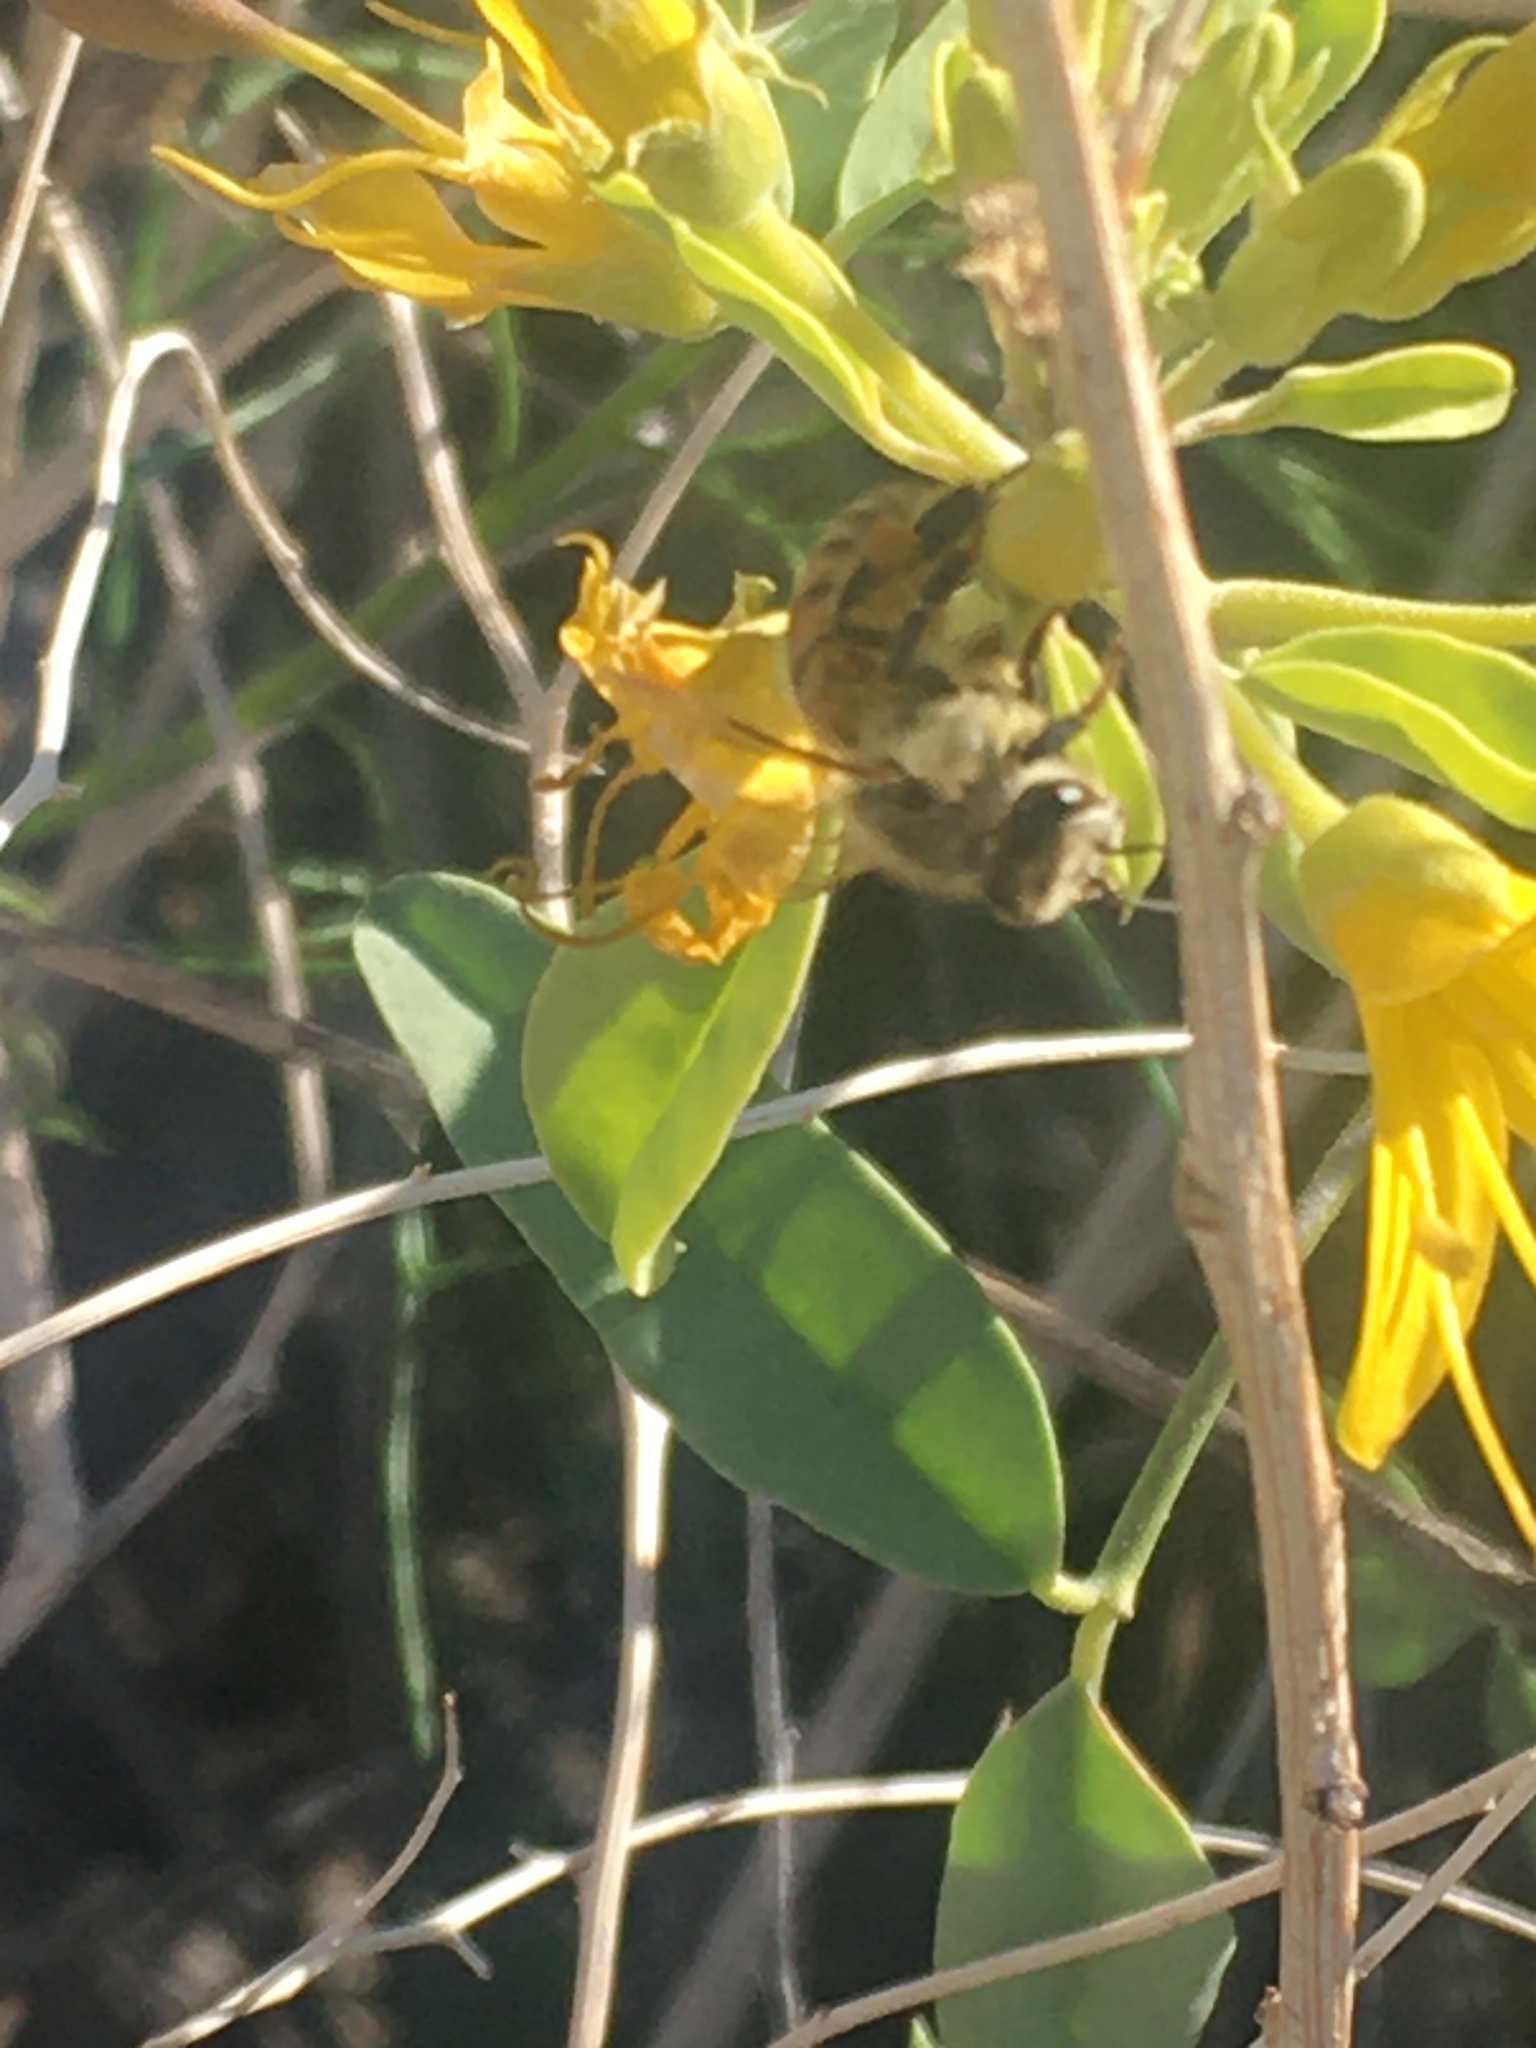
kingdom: Animalia
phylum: Arthropoda
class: Insecta
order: Hymenoptera
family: Apidae
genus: Apis
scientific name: Apis mellifera
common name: Honey bee
